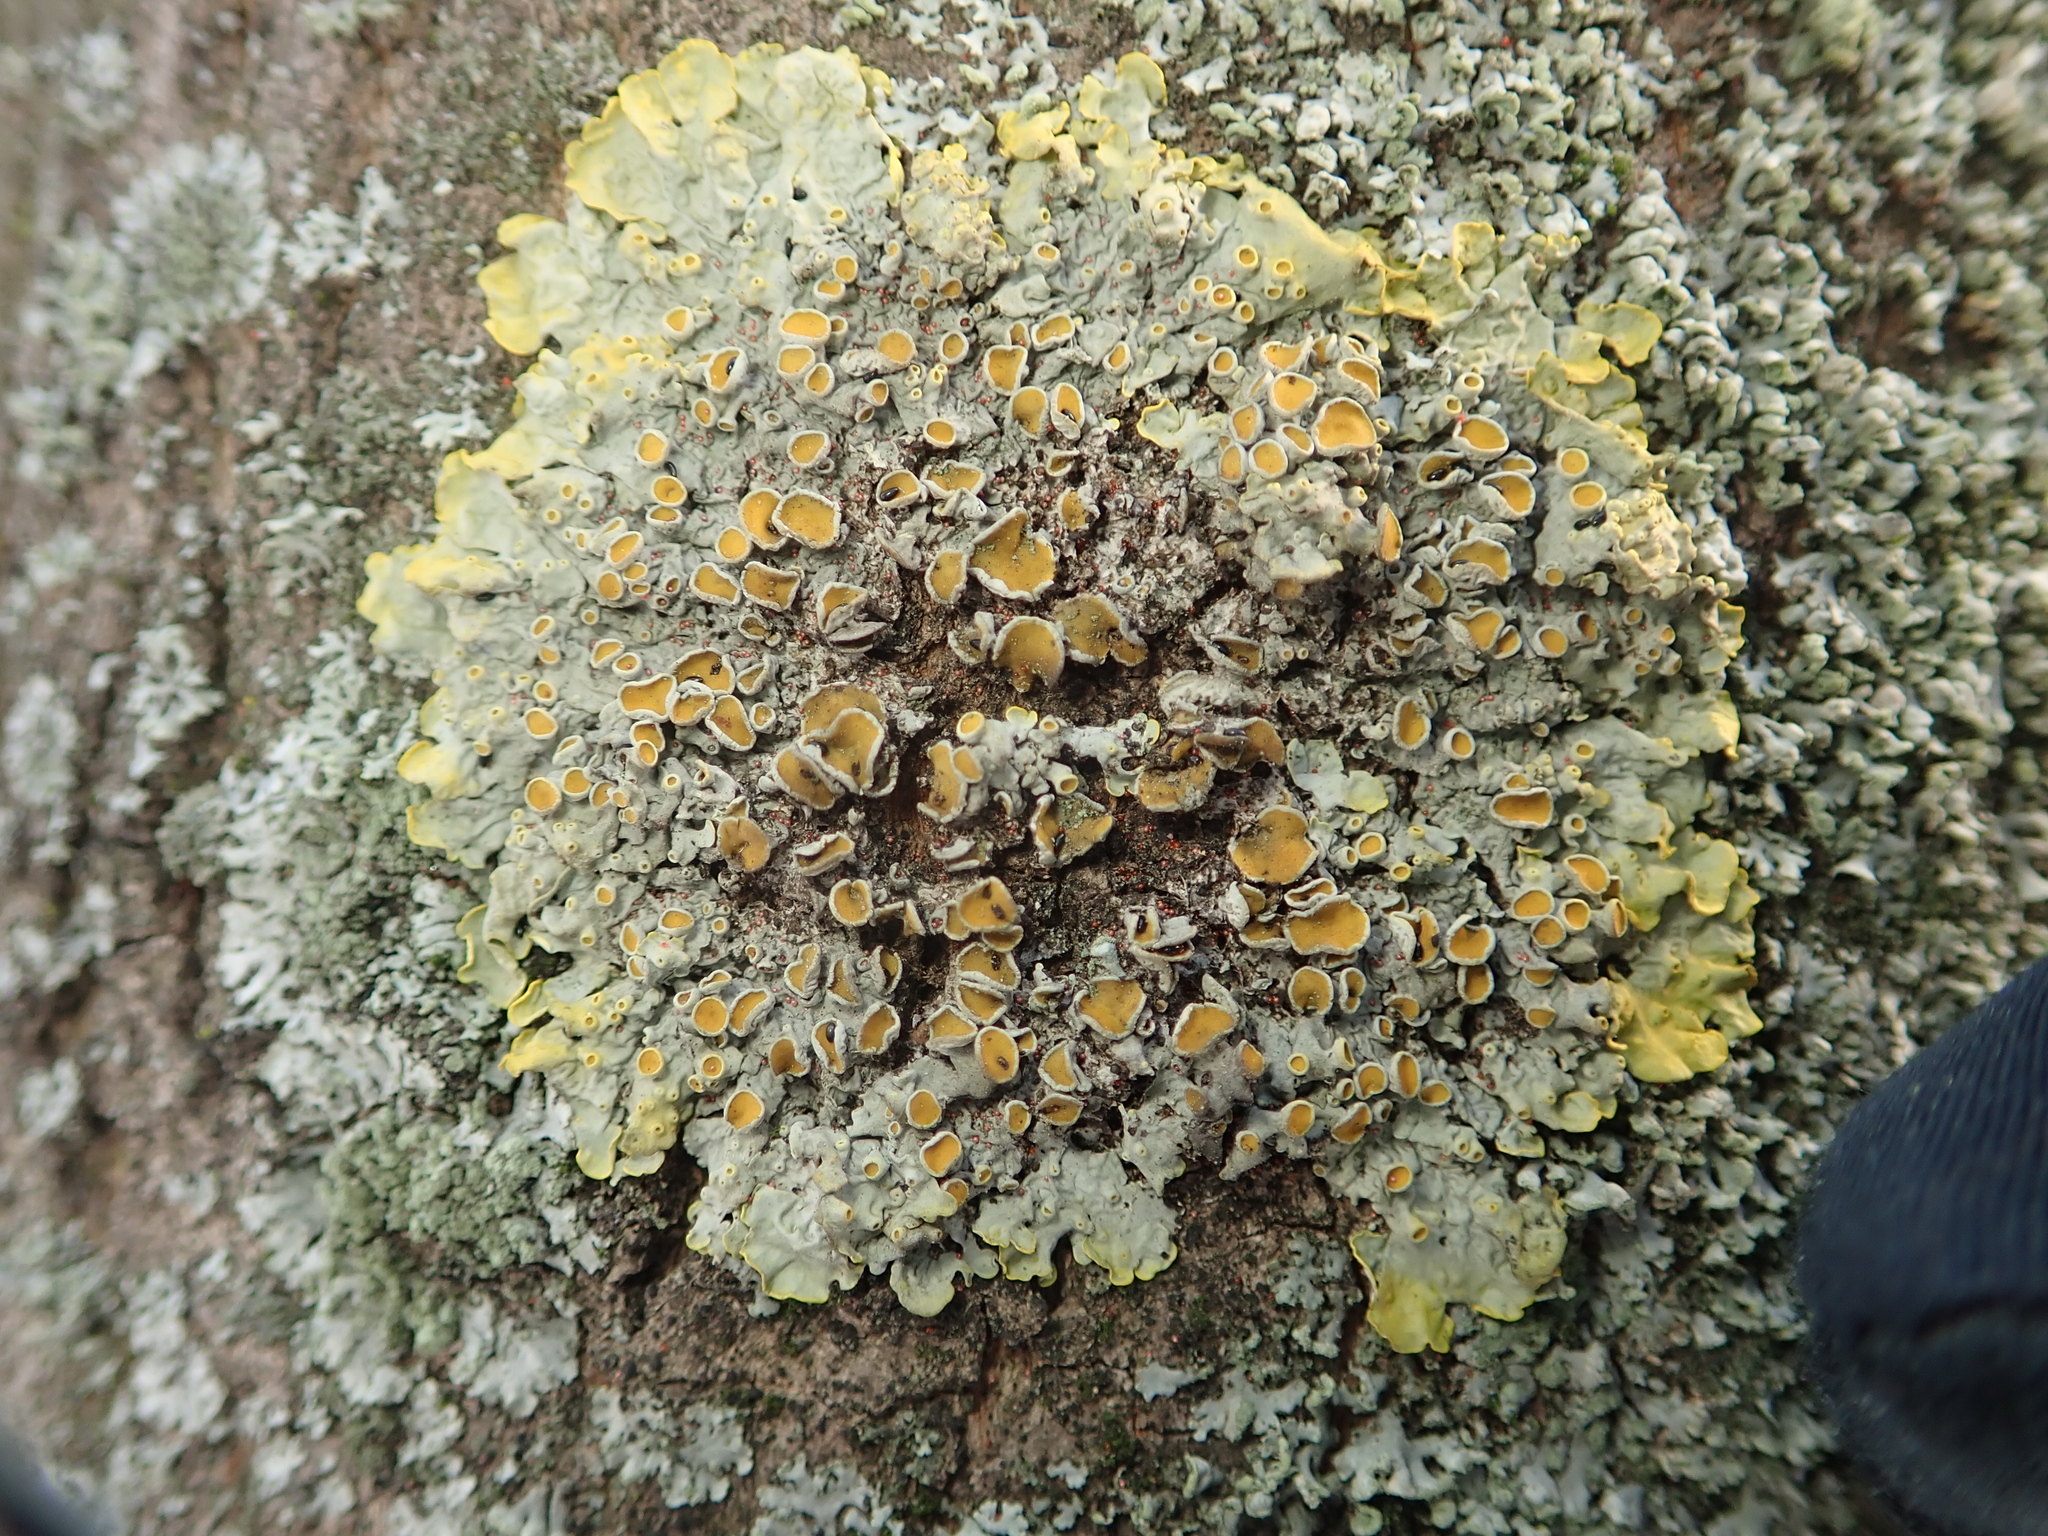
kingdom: Fungi
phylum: Ascomycota
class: Lecanoromycetes
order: Teloschistales
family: Teloschistaceae
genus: Xanthoria
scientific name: Xanthoria parietina
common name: Common orange lichen
